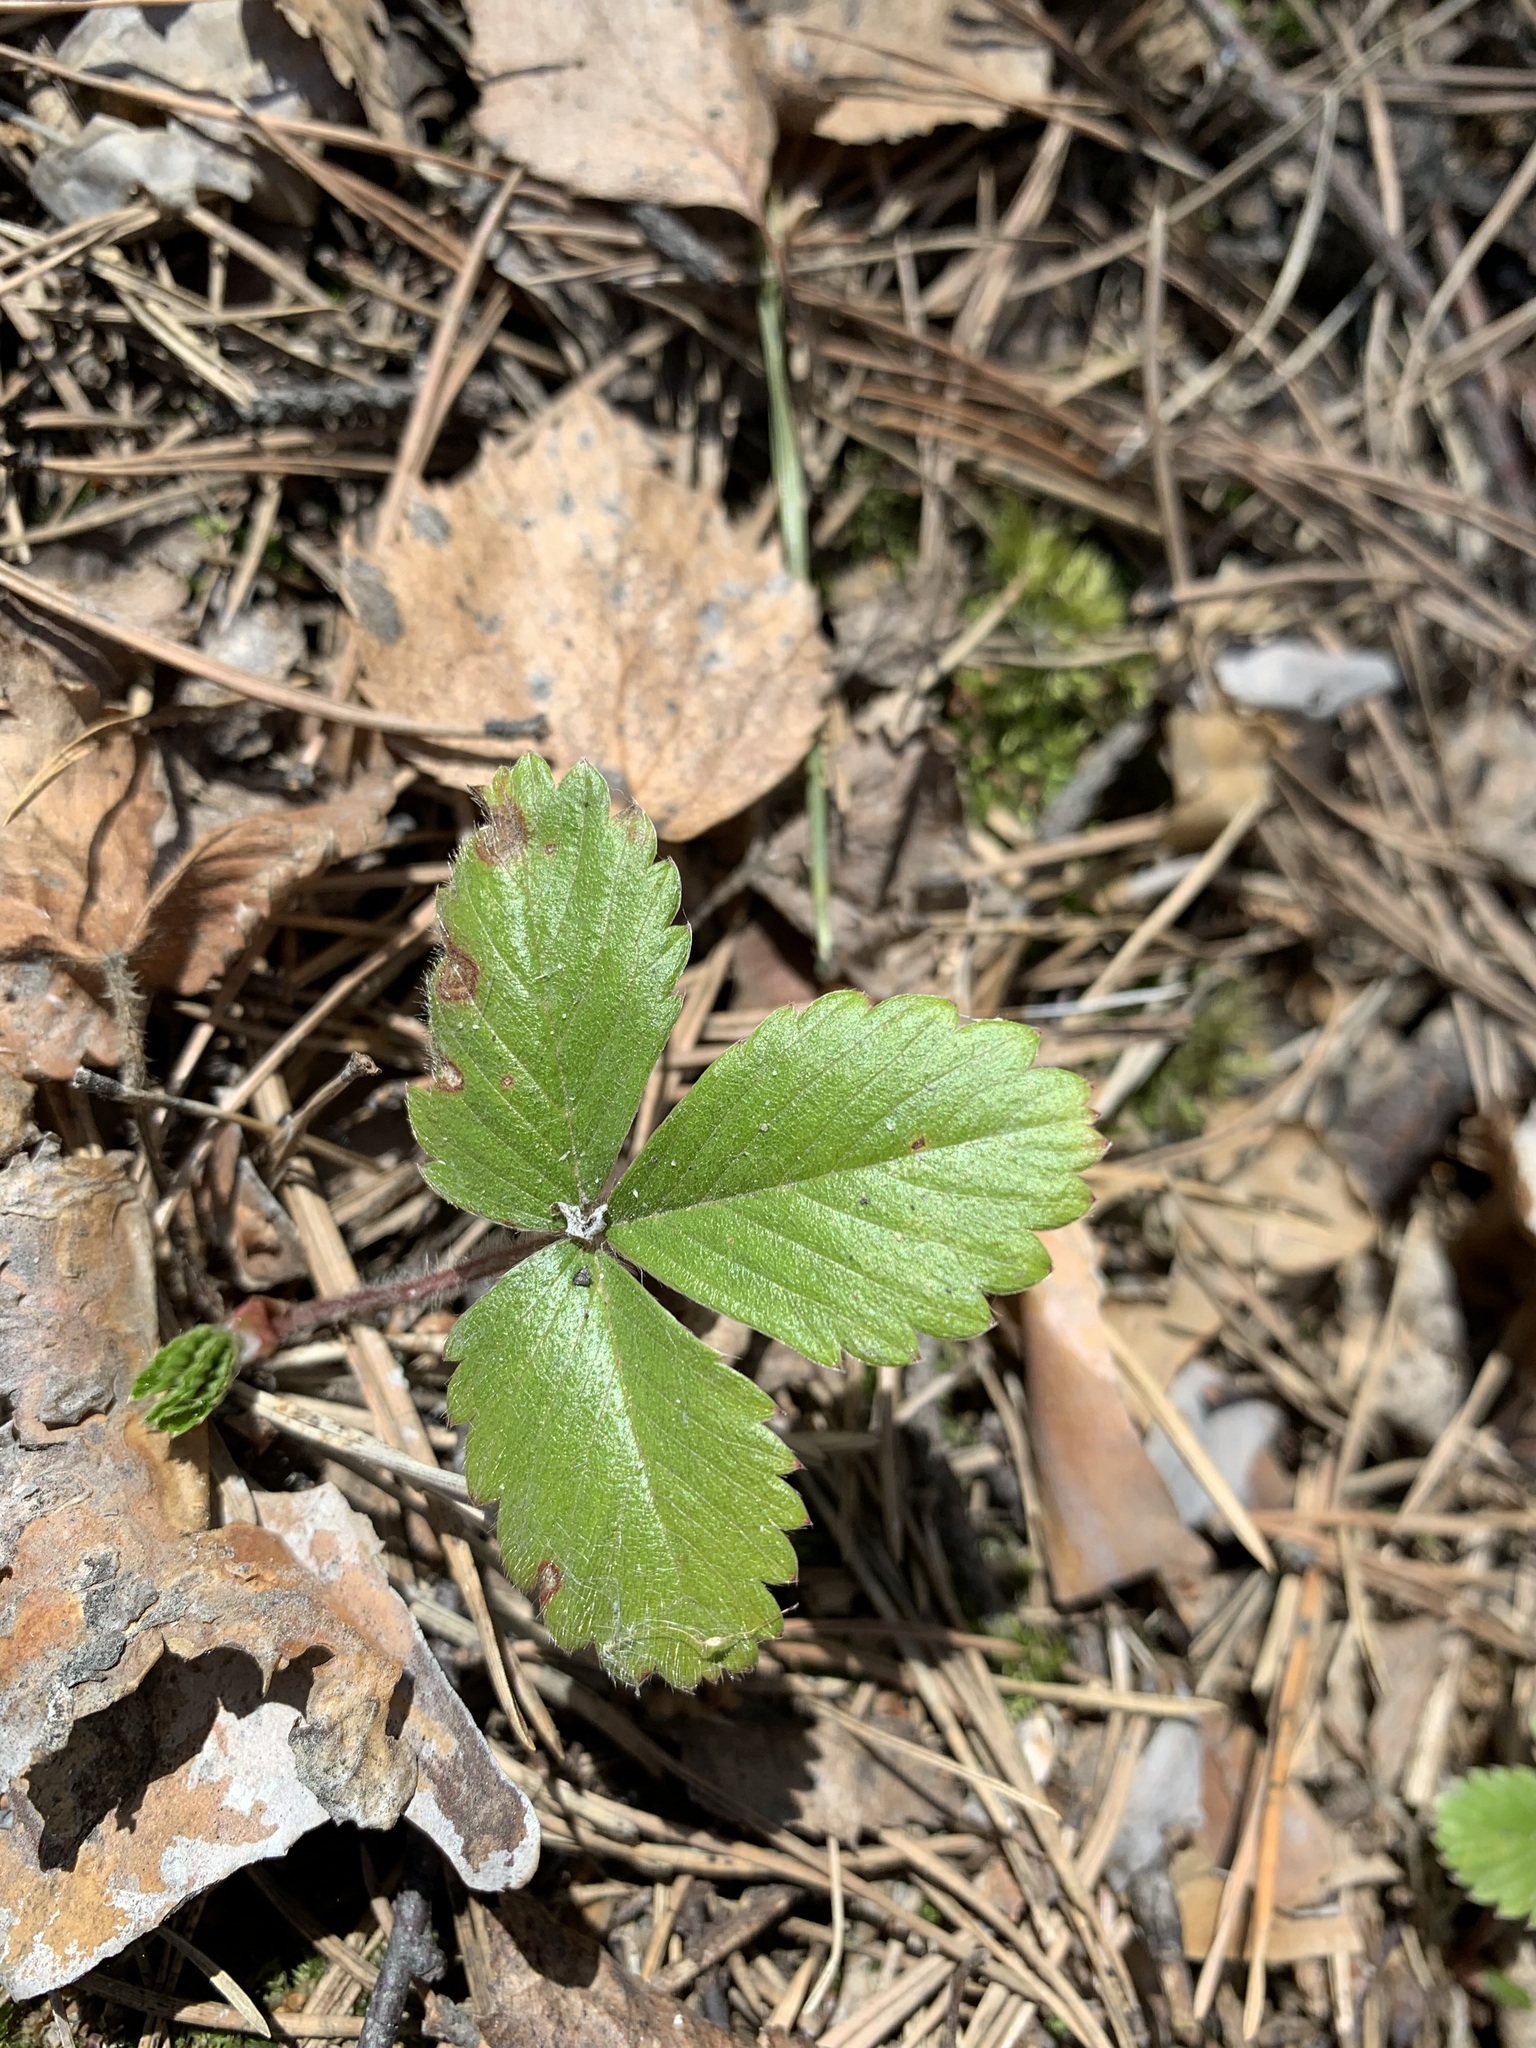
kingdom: Plantae
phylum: Tracheophyta
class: Magnoliopsida
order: Rosales
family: Rosaceae
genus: Fragaria
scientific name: Fragaria vesca
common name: Wild strawberry
